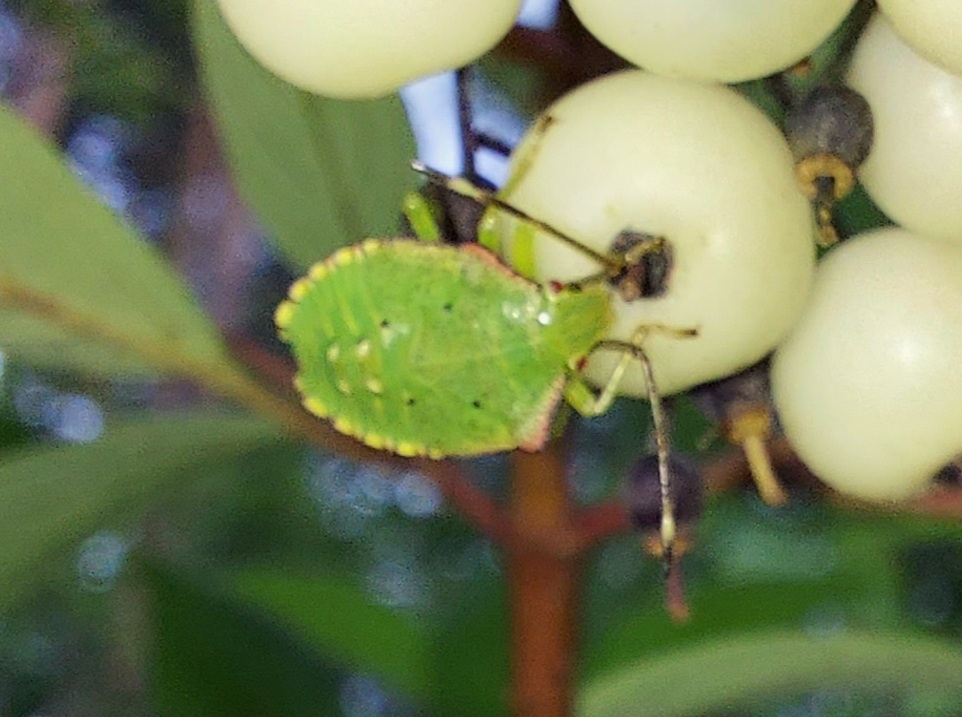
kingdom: Animalia
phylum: Arthropoda
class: Insecta
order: Hemiptera
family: Acanthosomatidae
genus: Acanthosoma
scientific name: Acanthosoma haemorrhoidale
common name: Hawthorn shieldbug
